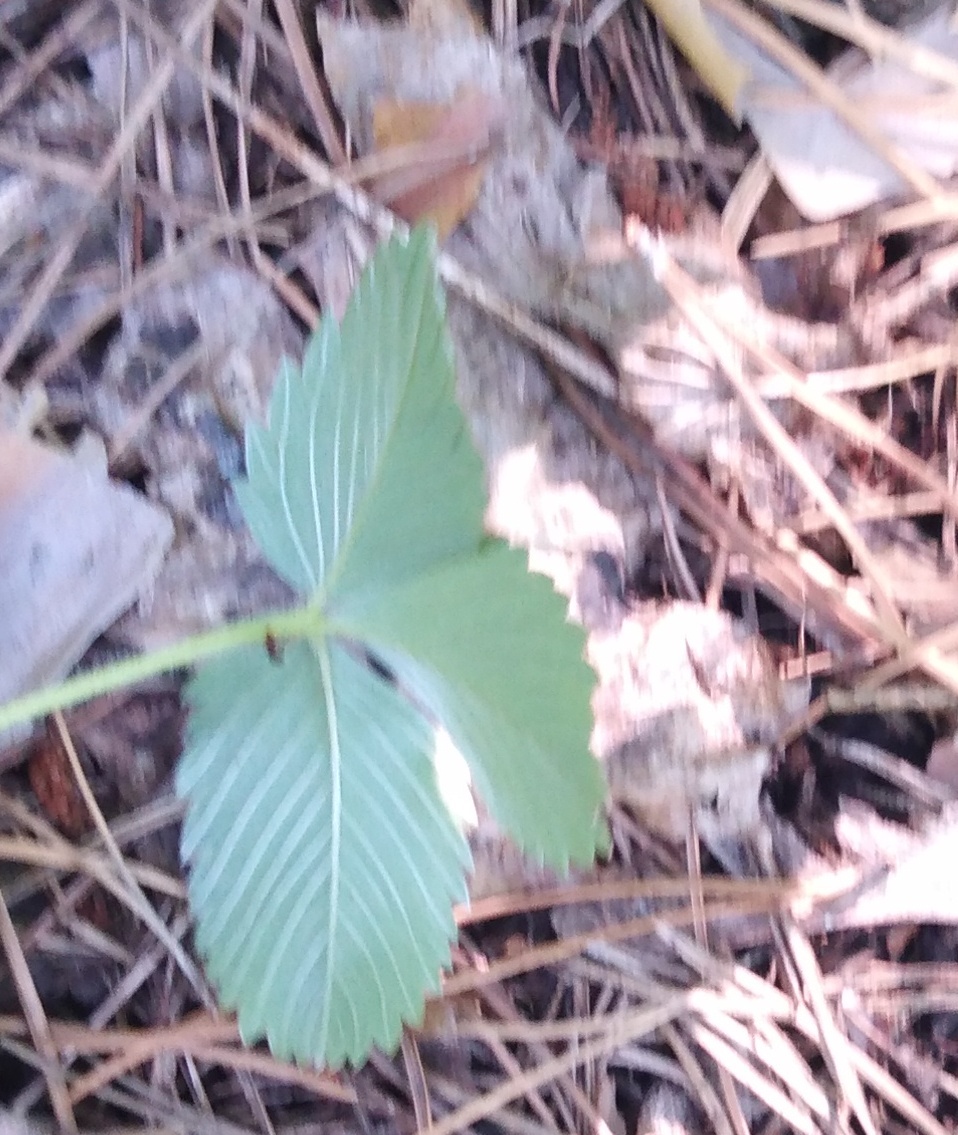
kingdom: Plantae
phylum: Tracheophyta
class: Magnoliopsida
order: Rosales
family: Rosaceae
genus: Fragaria
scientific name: Fragaria viridis
